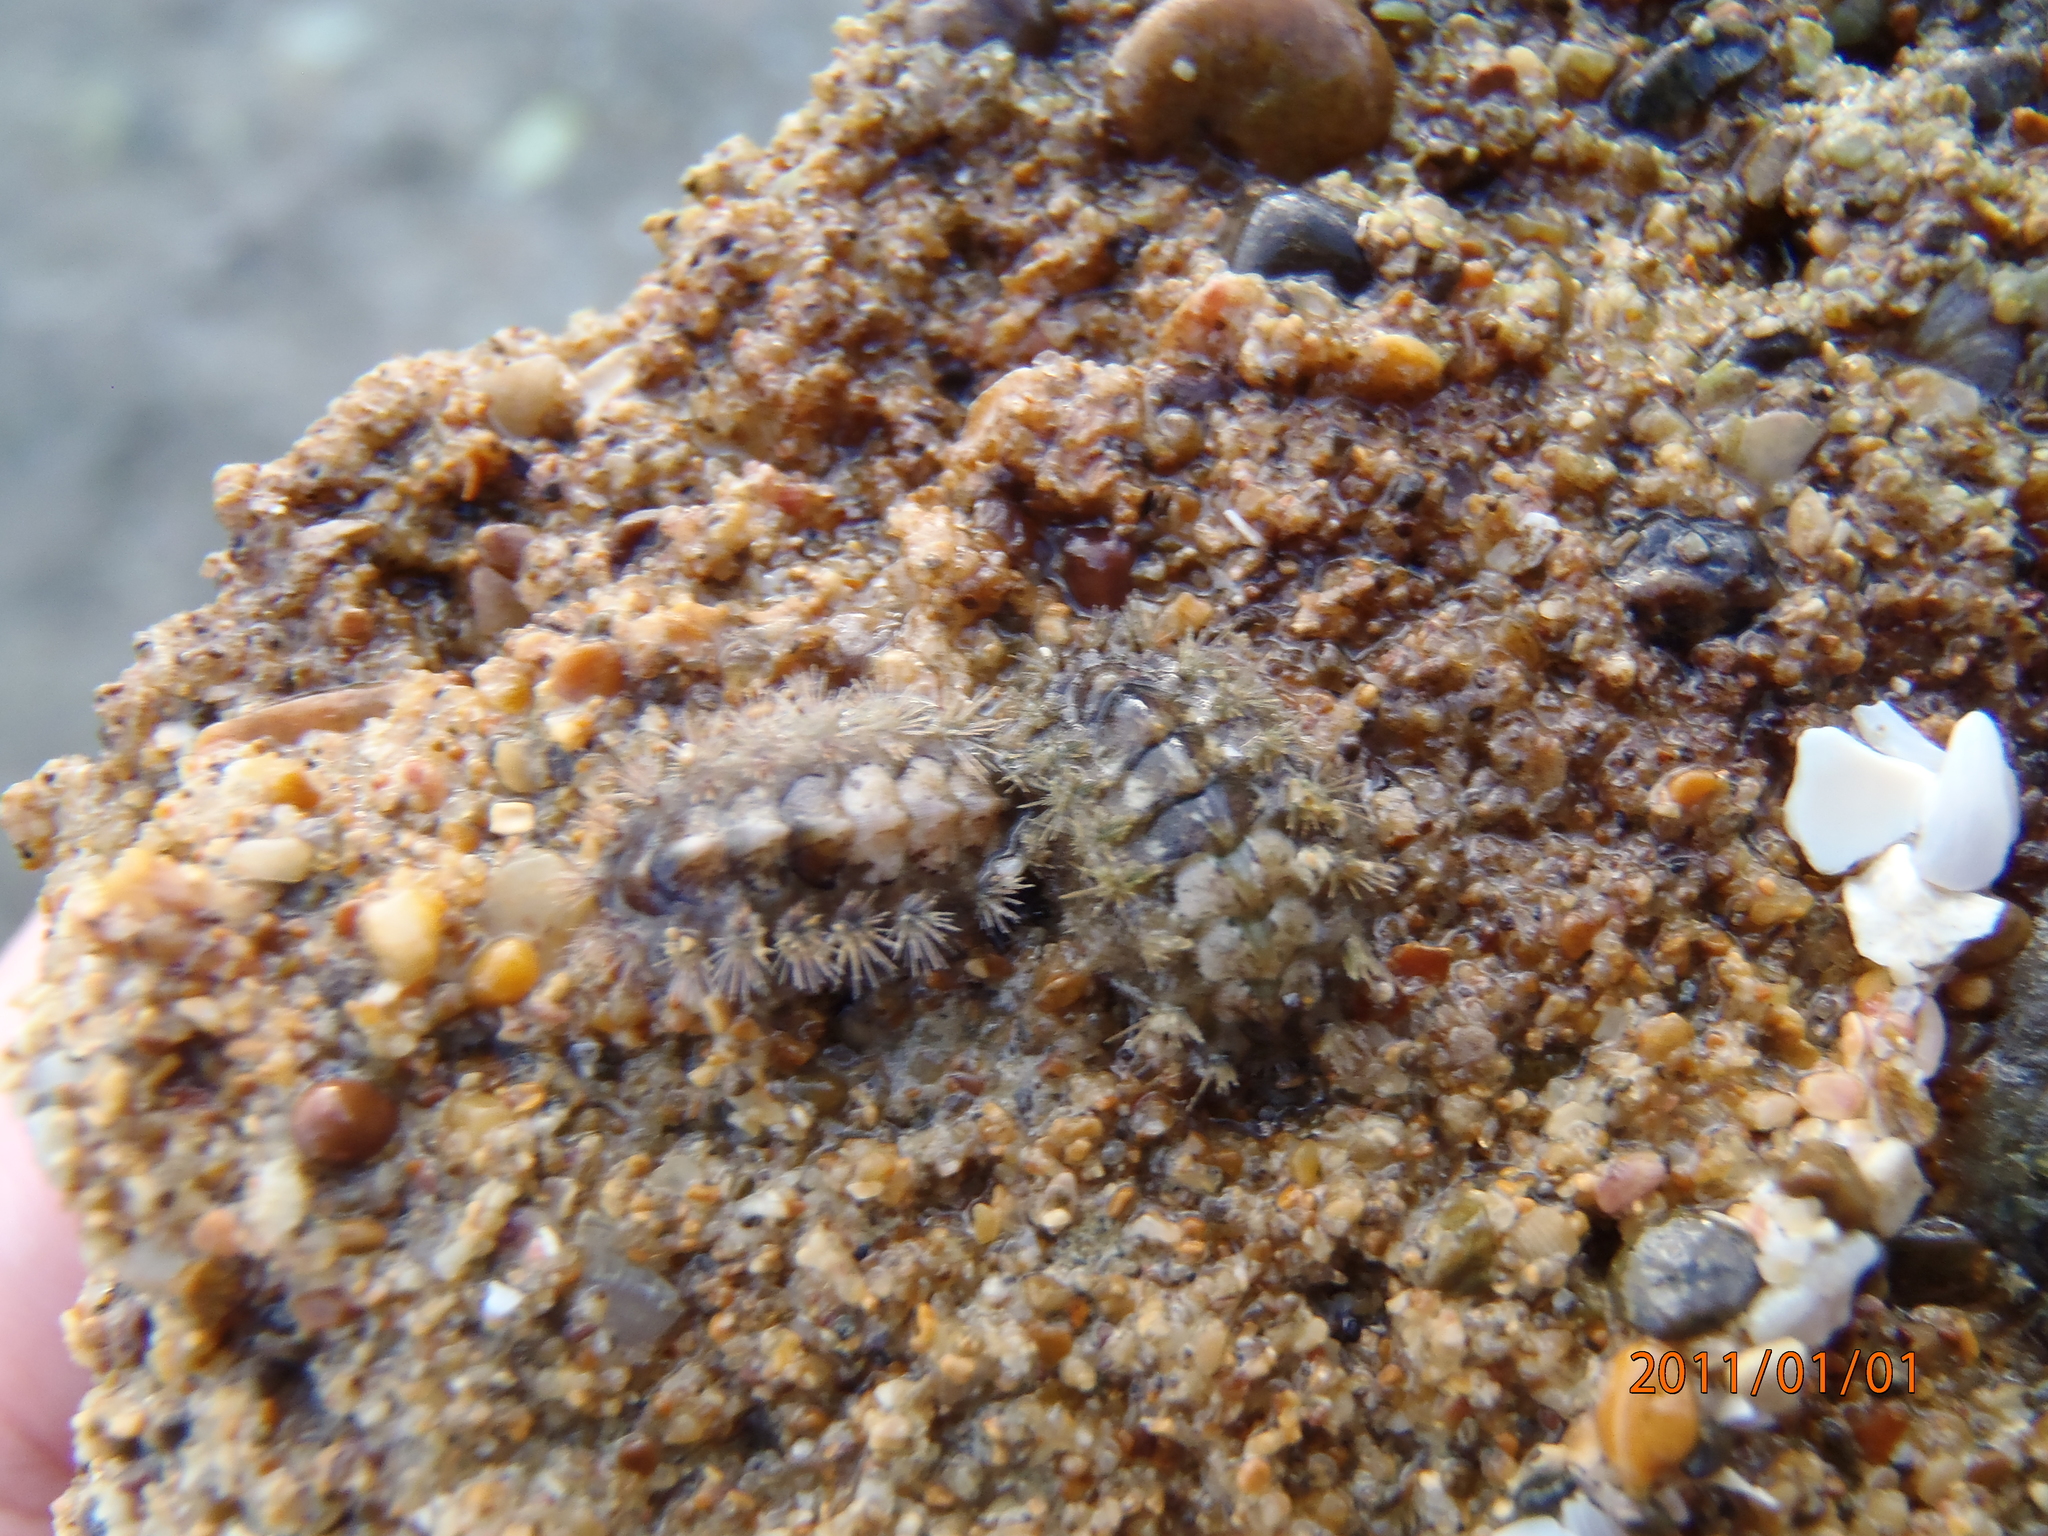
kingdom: Animalia
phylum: Mollusca
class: Polyplacophora
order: Chitonida
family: Acanthochitonidae
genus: Acanthochitona
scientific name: Acanthochitona zelandica
